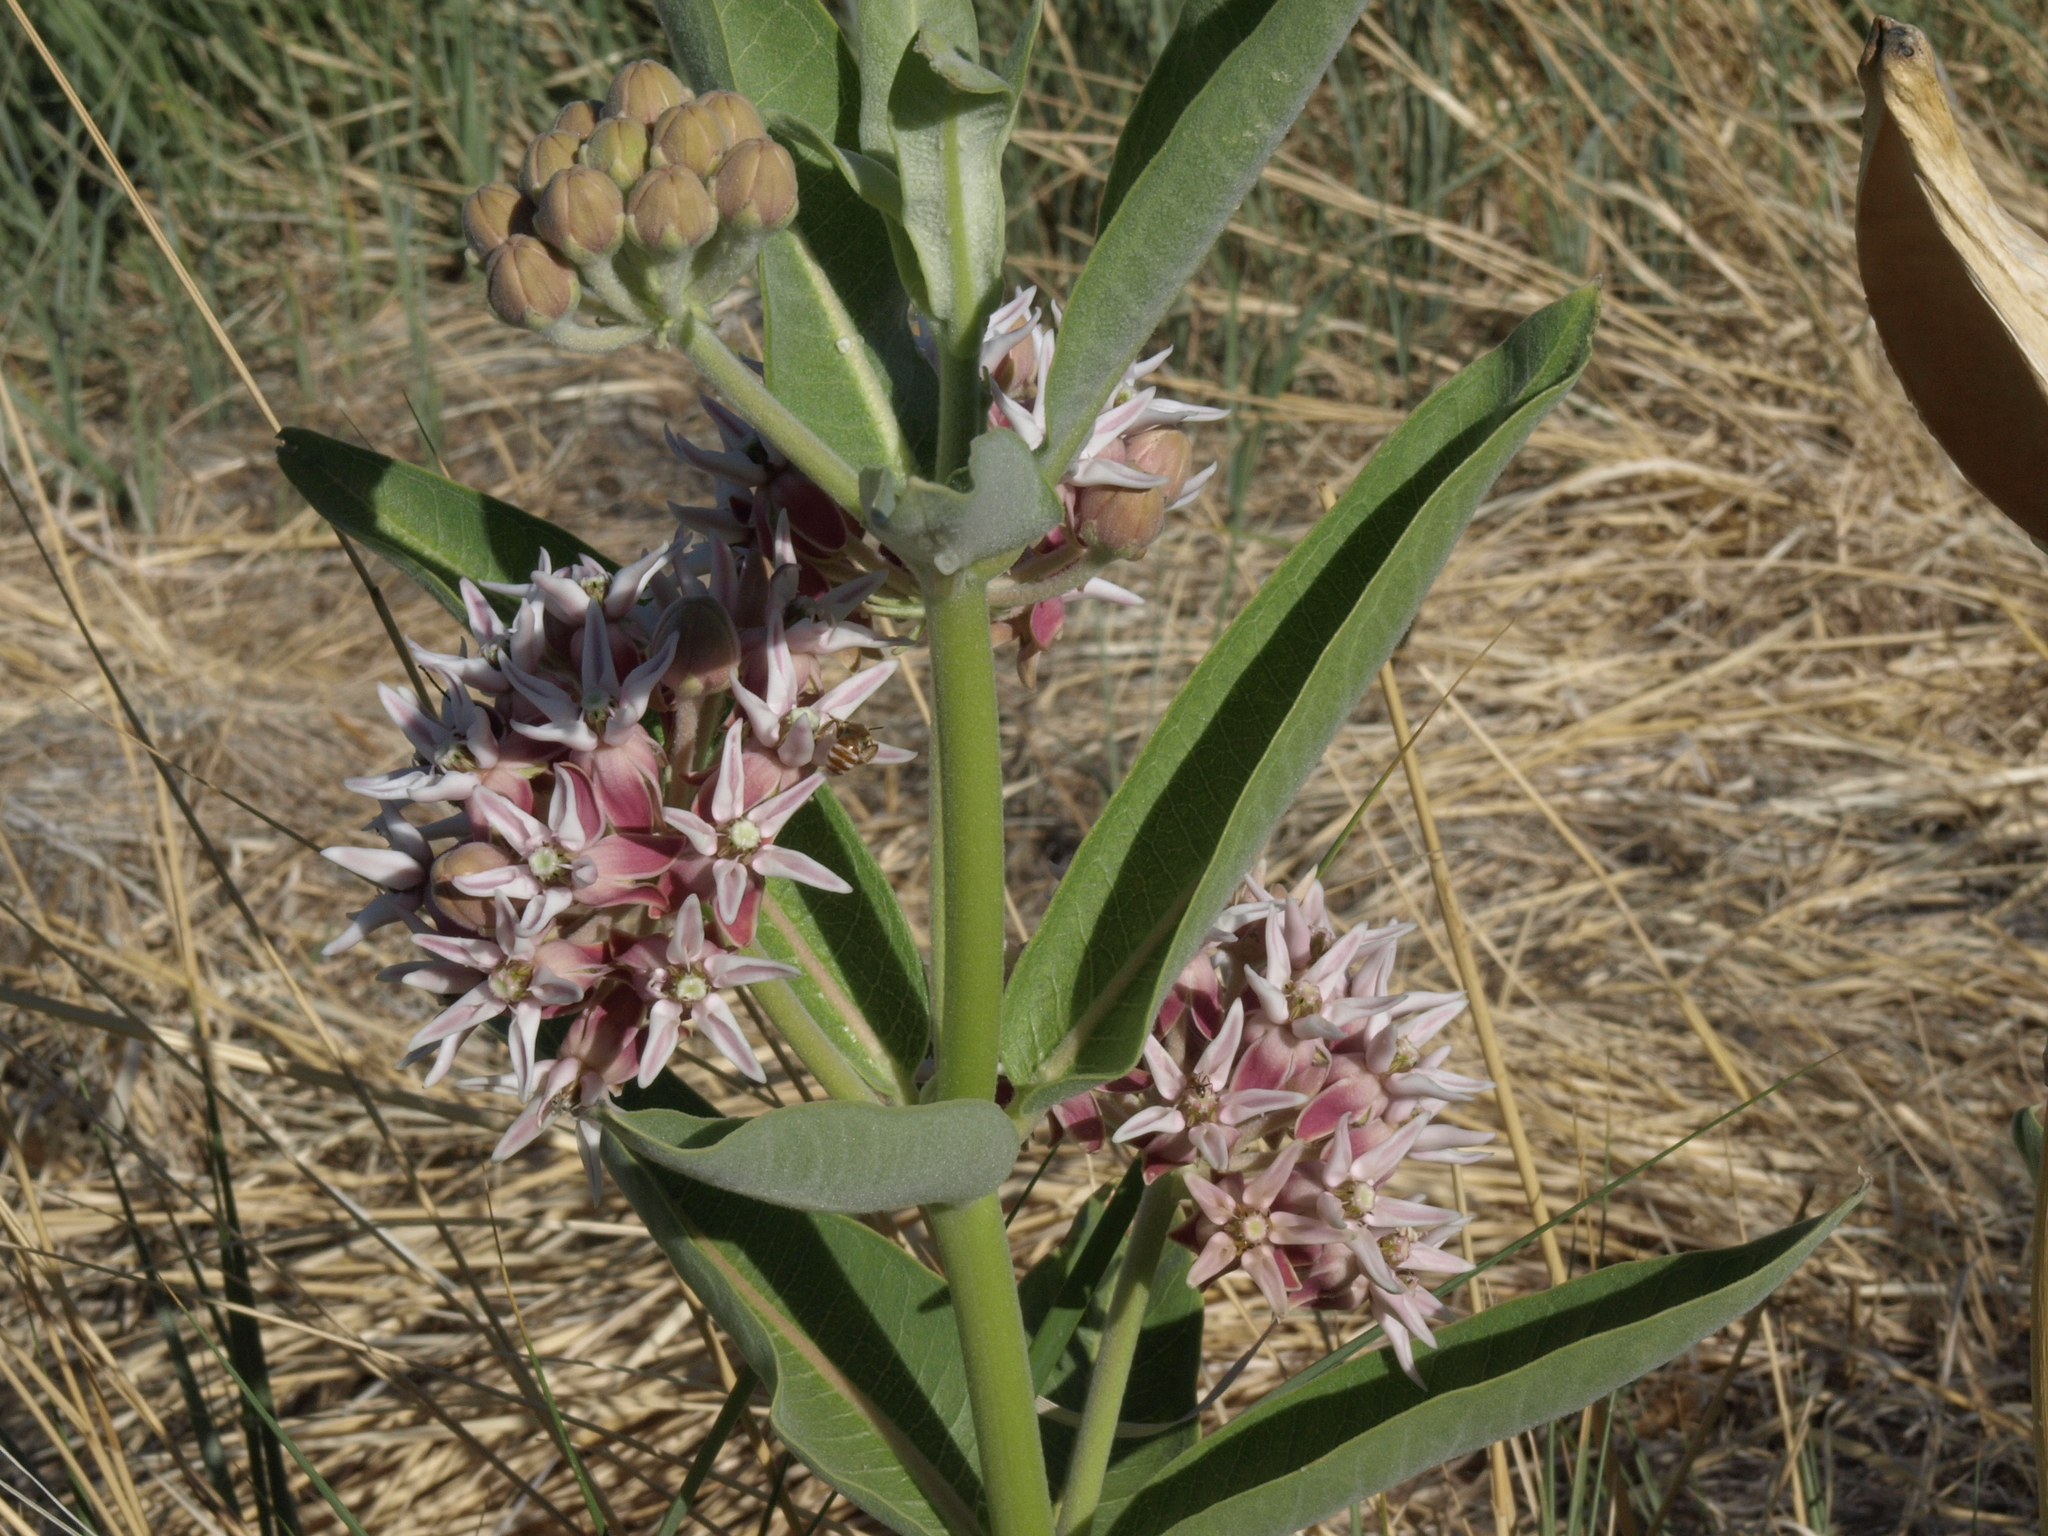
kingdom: Plantae
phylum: Tracheophyta
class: Magnoliopsida
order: Gentianales
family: Apocynaceae
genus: Asclepias
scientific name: Asclepias speciosa
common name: Showy milkweed
